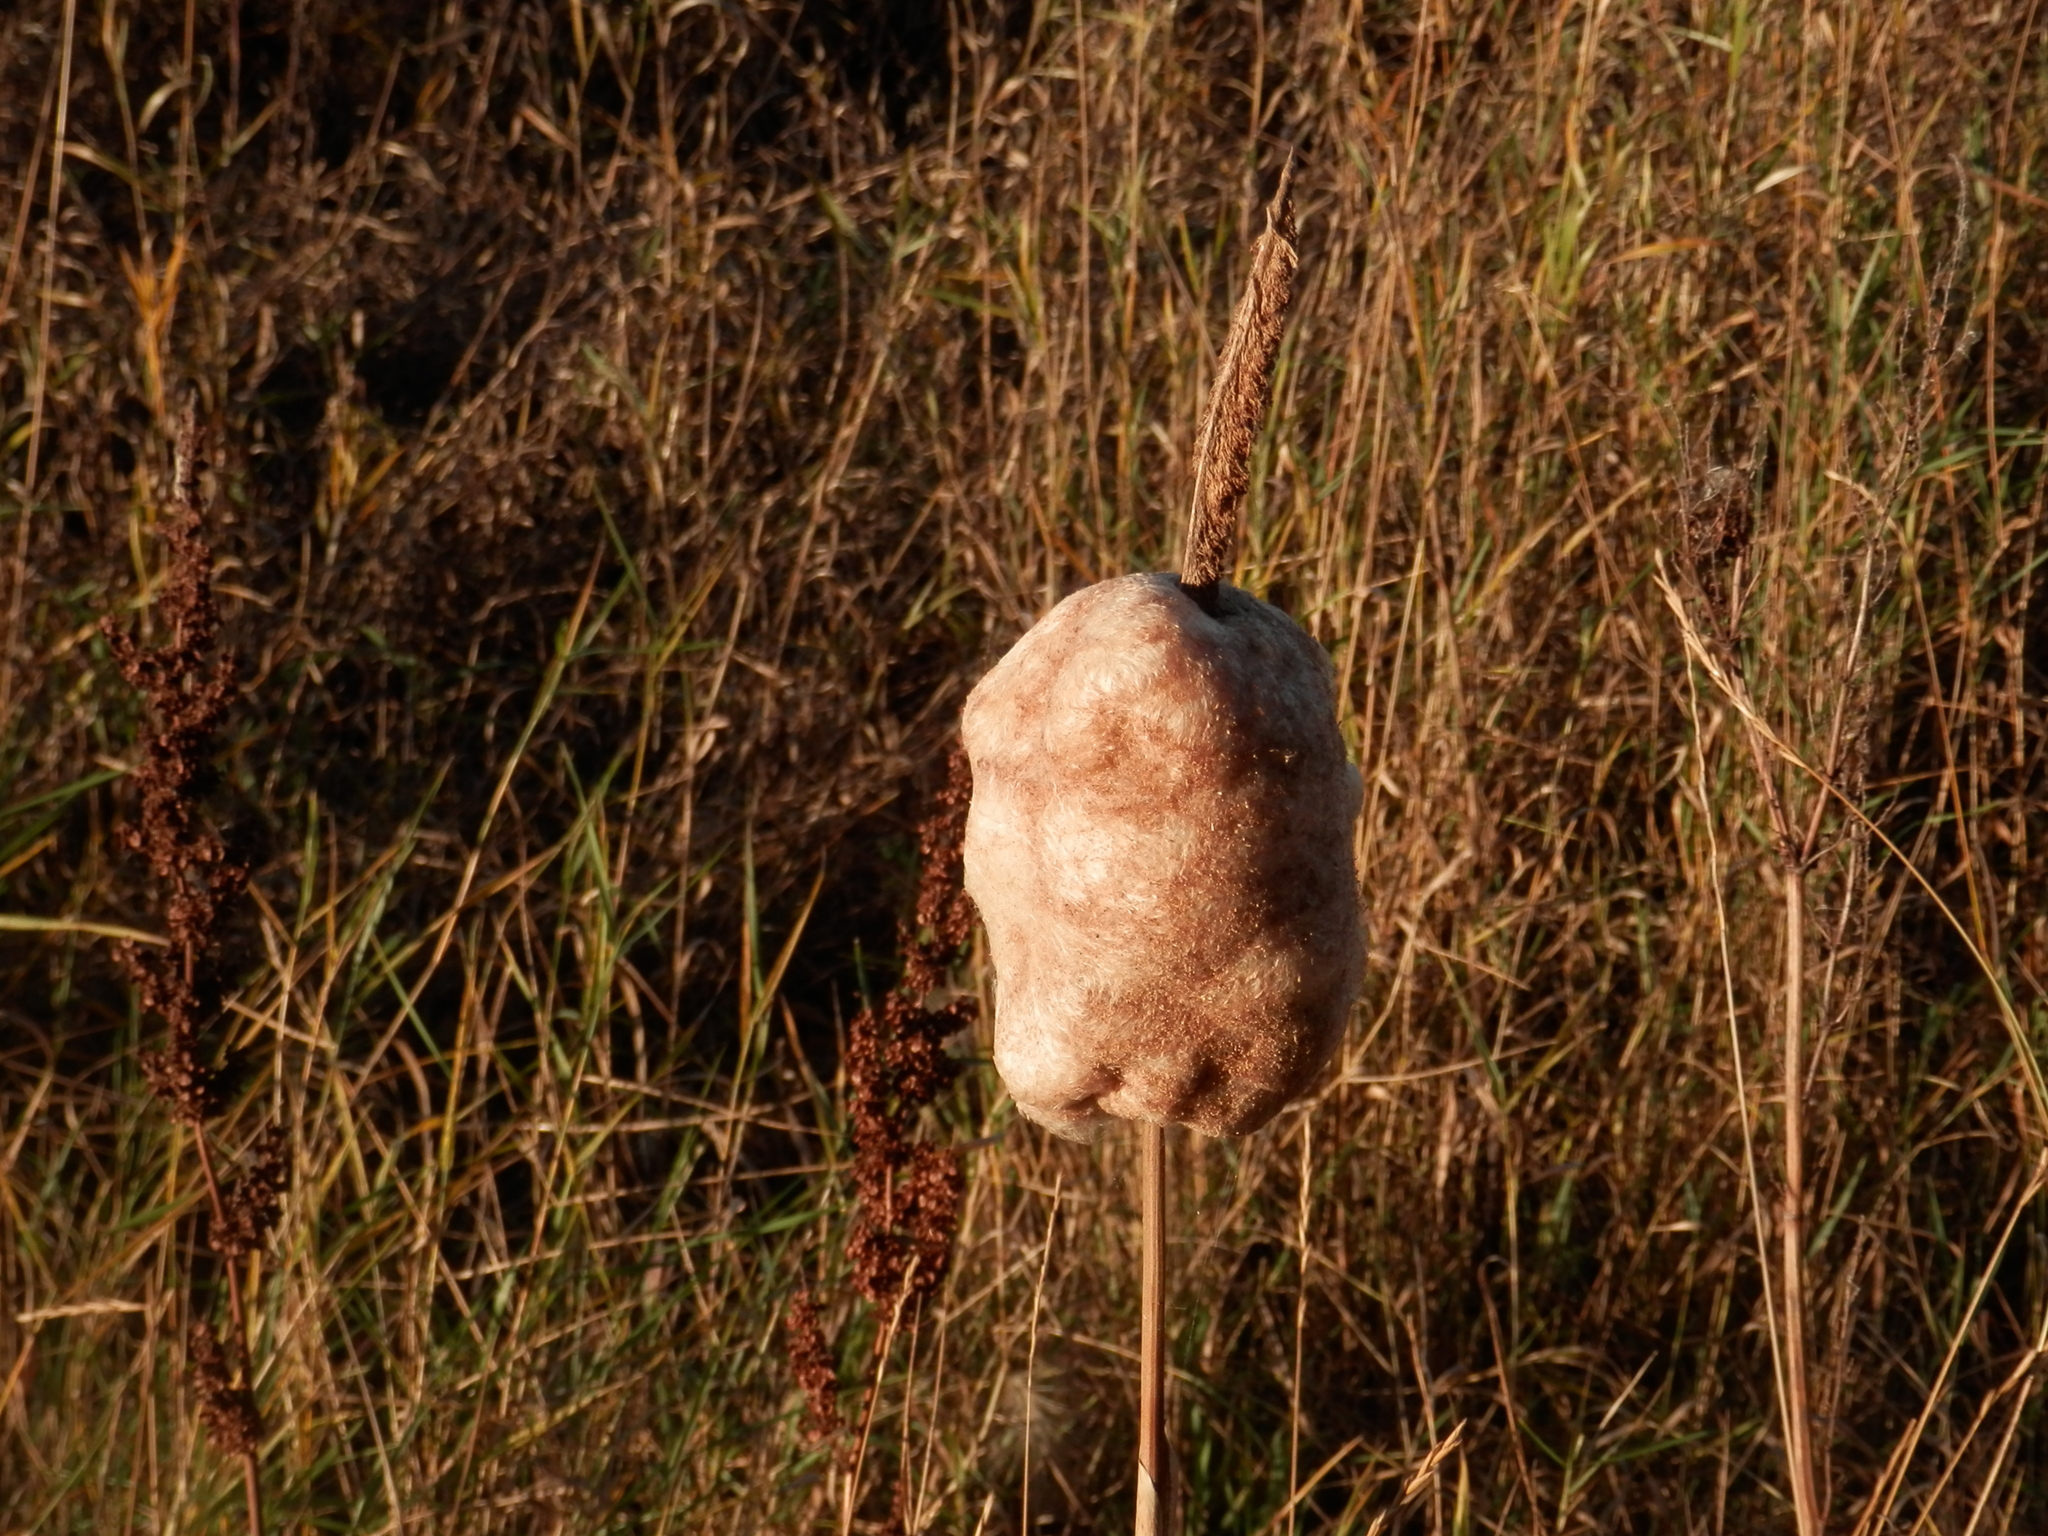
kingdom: Plantae
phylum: Tracheophyta
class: Liliopsida
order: Poales
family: Typhaceae
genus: Typha
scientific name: Typha latifolia
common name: Broadleaf cattail
